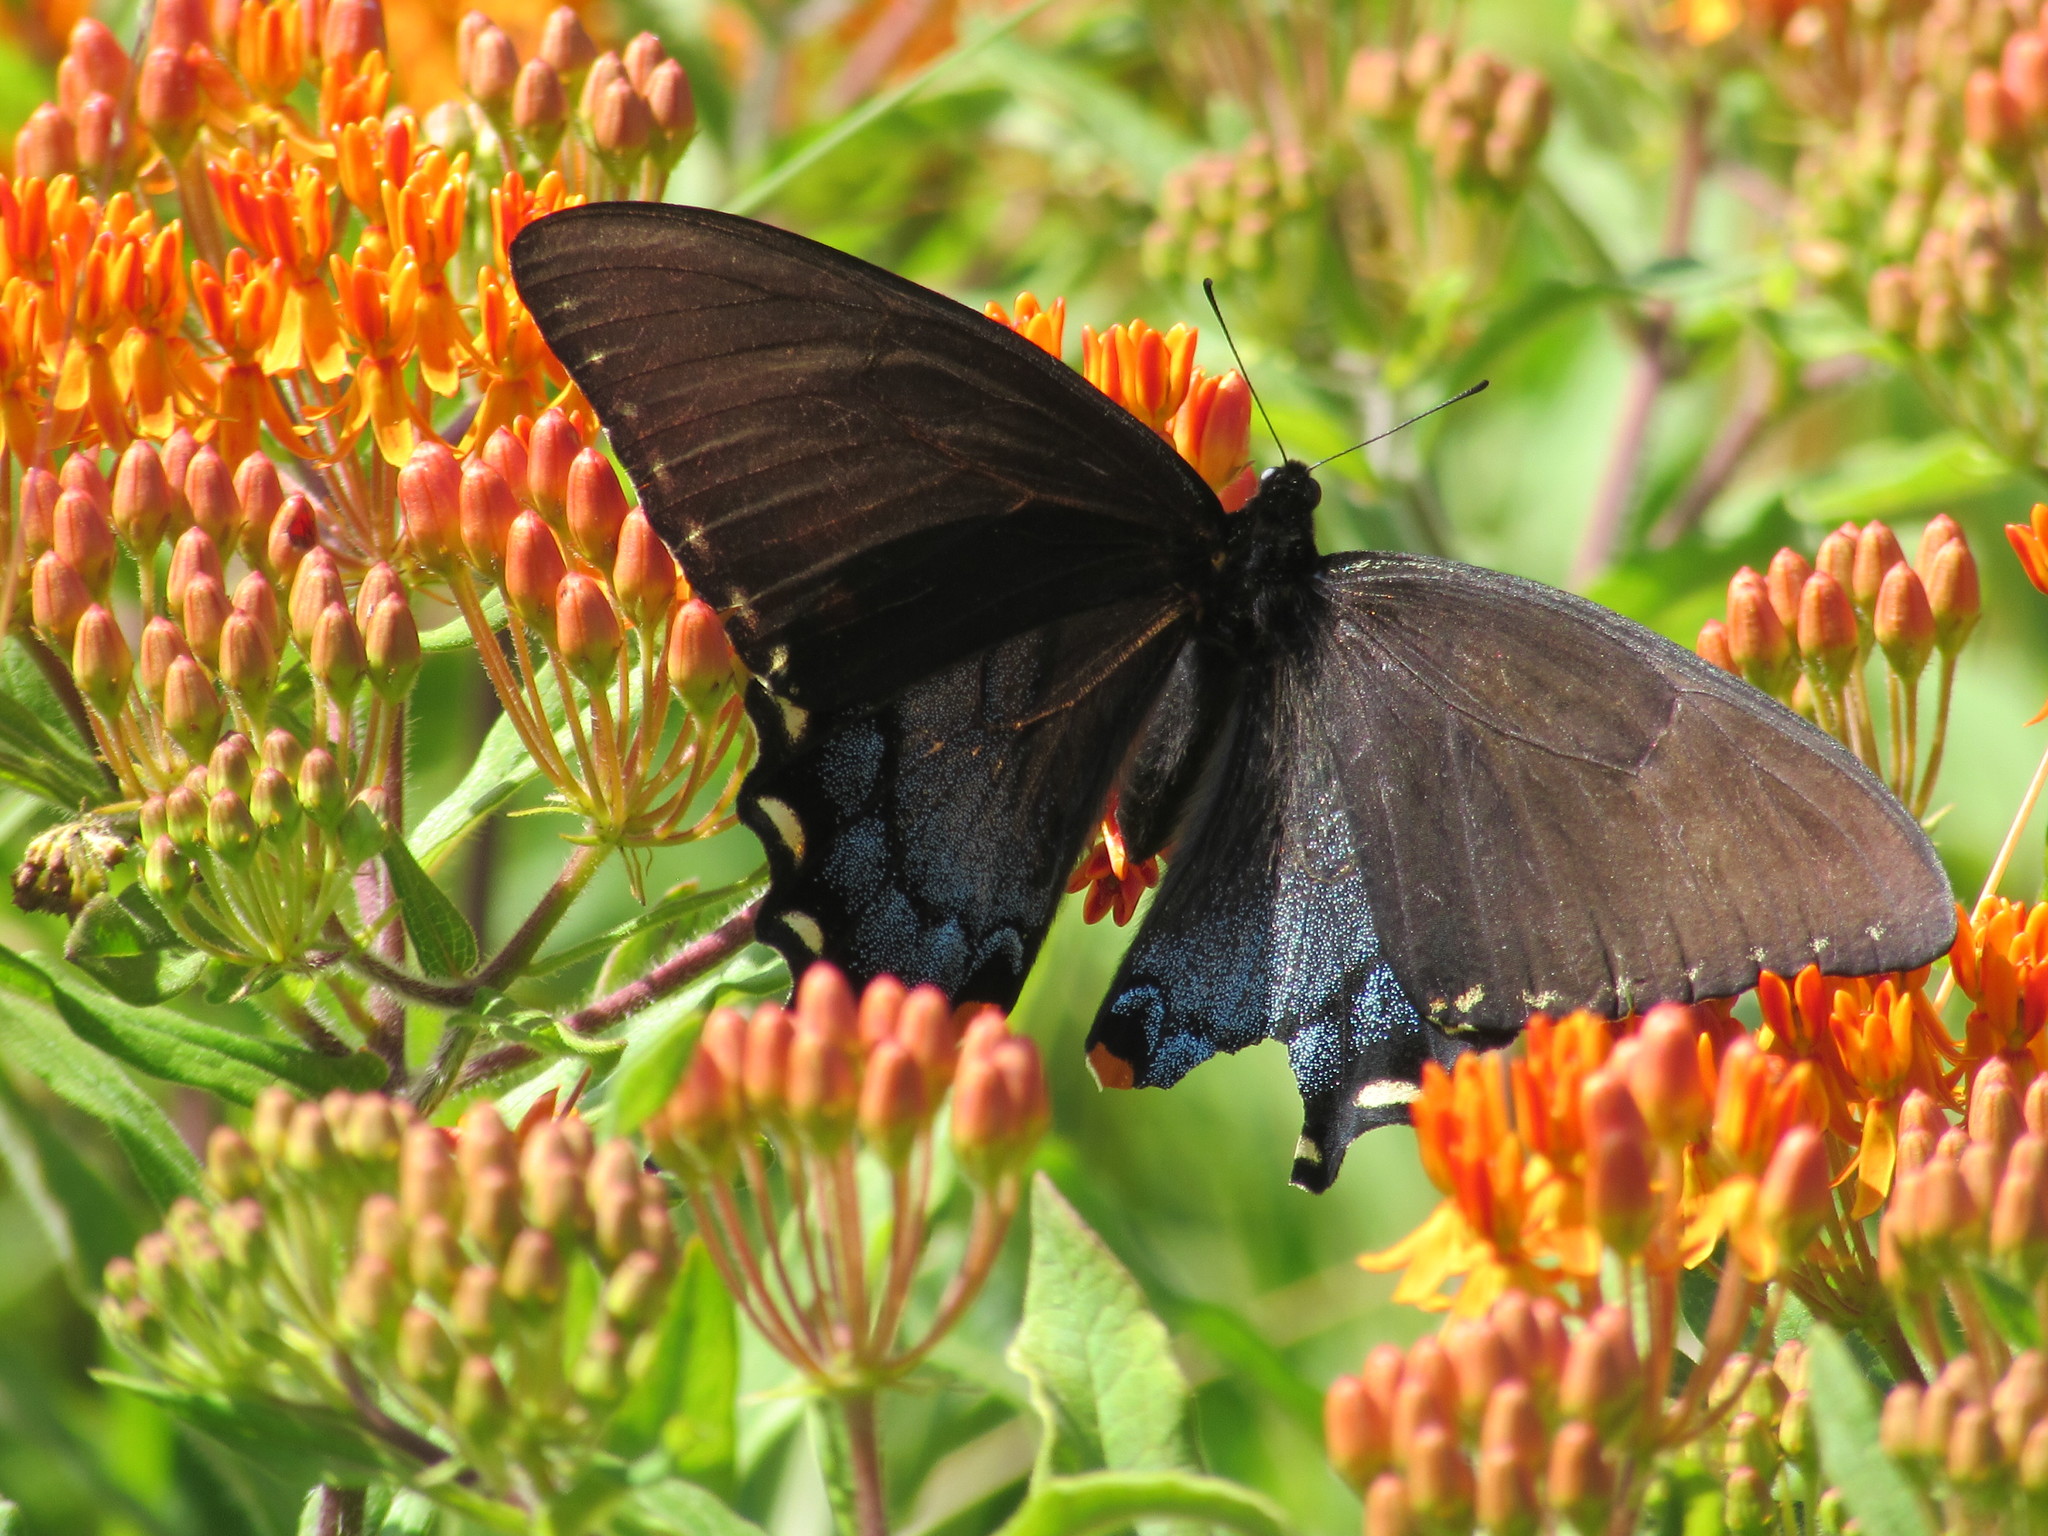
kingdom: Animalia
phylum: Arthropoda
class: Insecta
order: Lepidoptera
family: Papilionidae
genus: Papilio
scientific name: Papilio glaucus
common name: Tiger swallowtail
